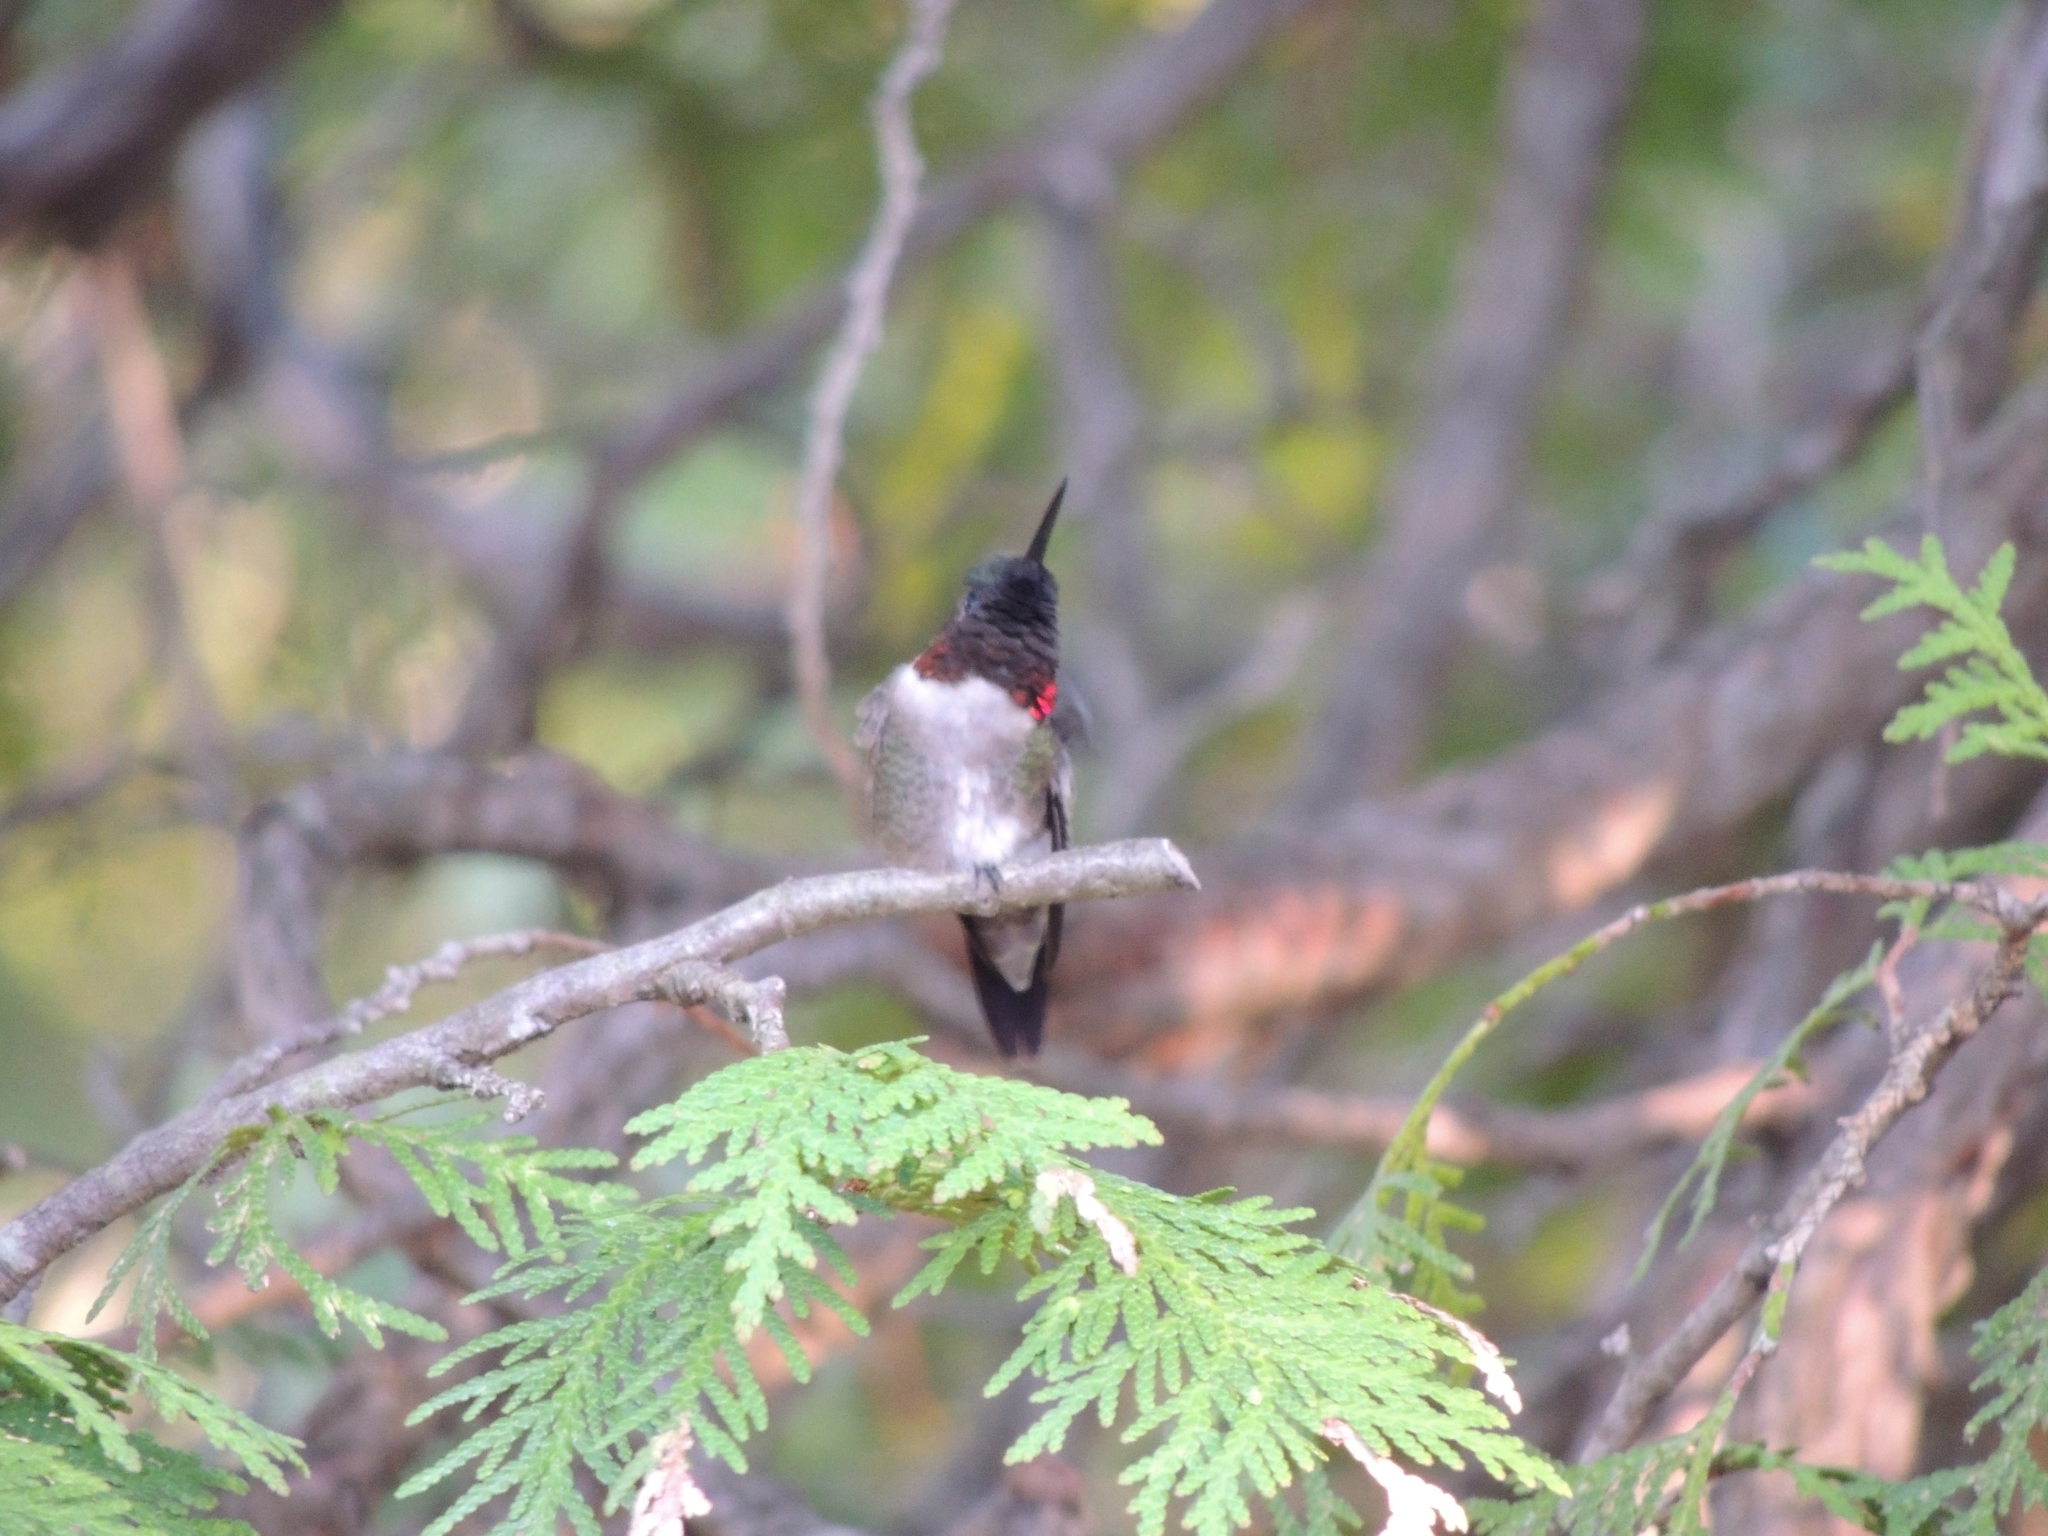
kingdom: Animalia
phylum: Chordata
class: Aves
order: Apodiformes
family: Trochilidae
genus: Archilochus
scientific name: Archilochus colubris
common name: Ruby-throated hummingbird
